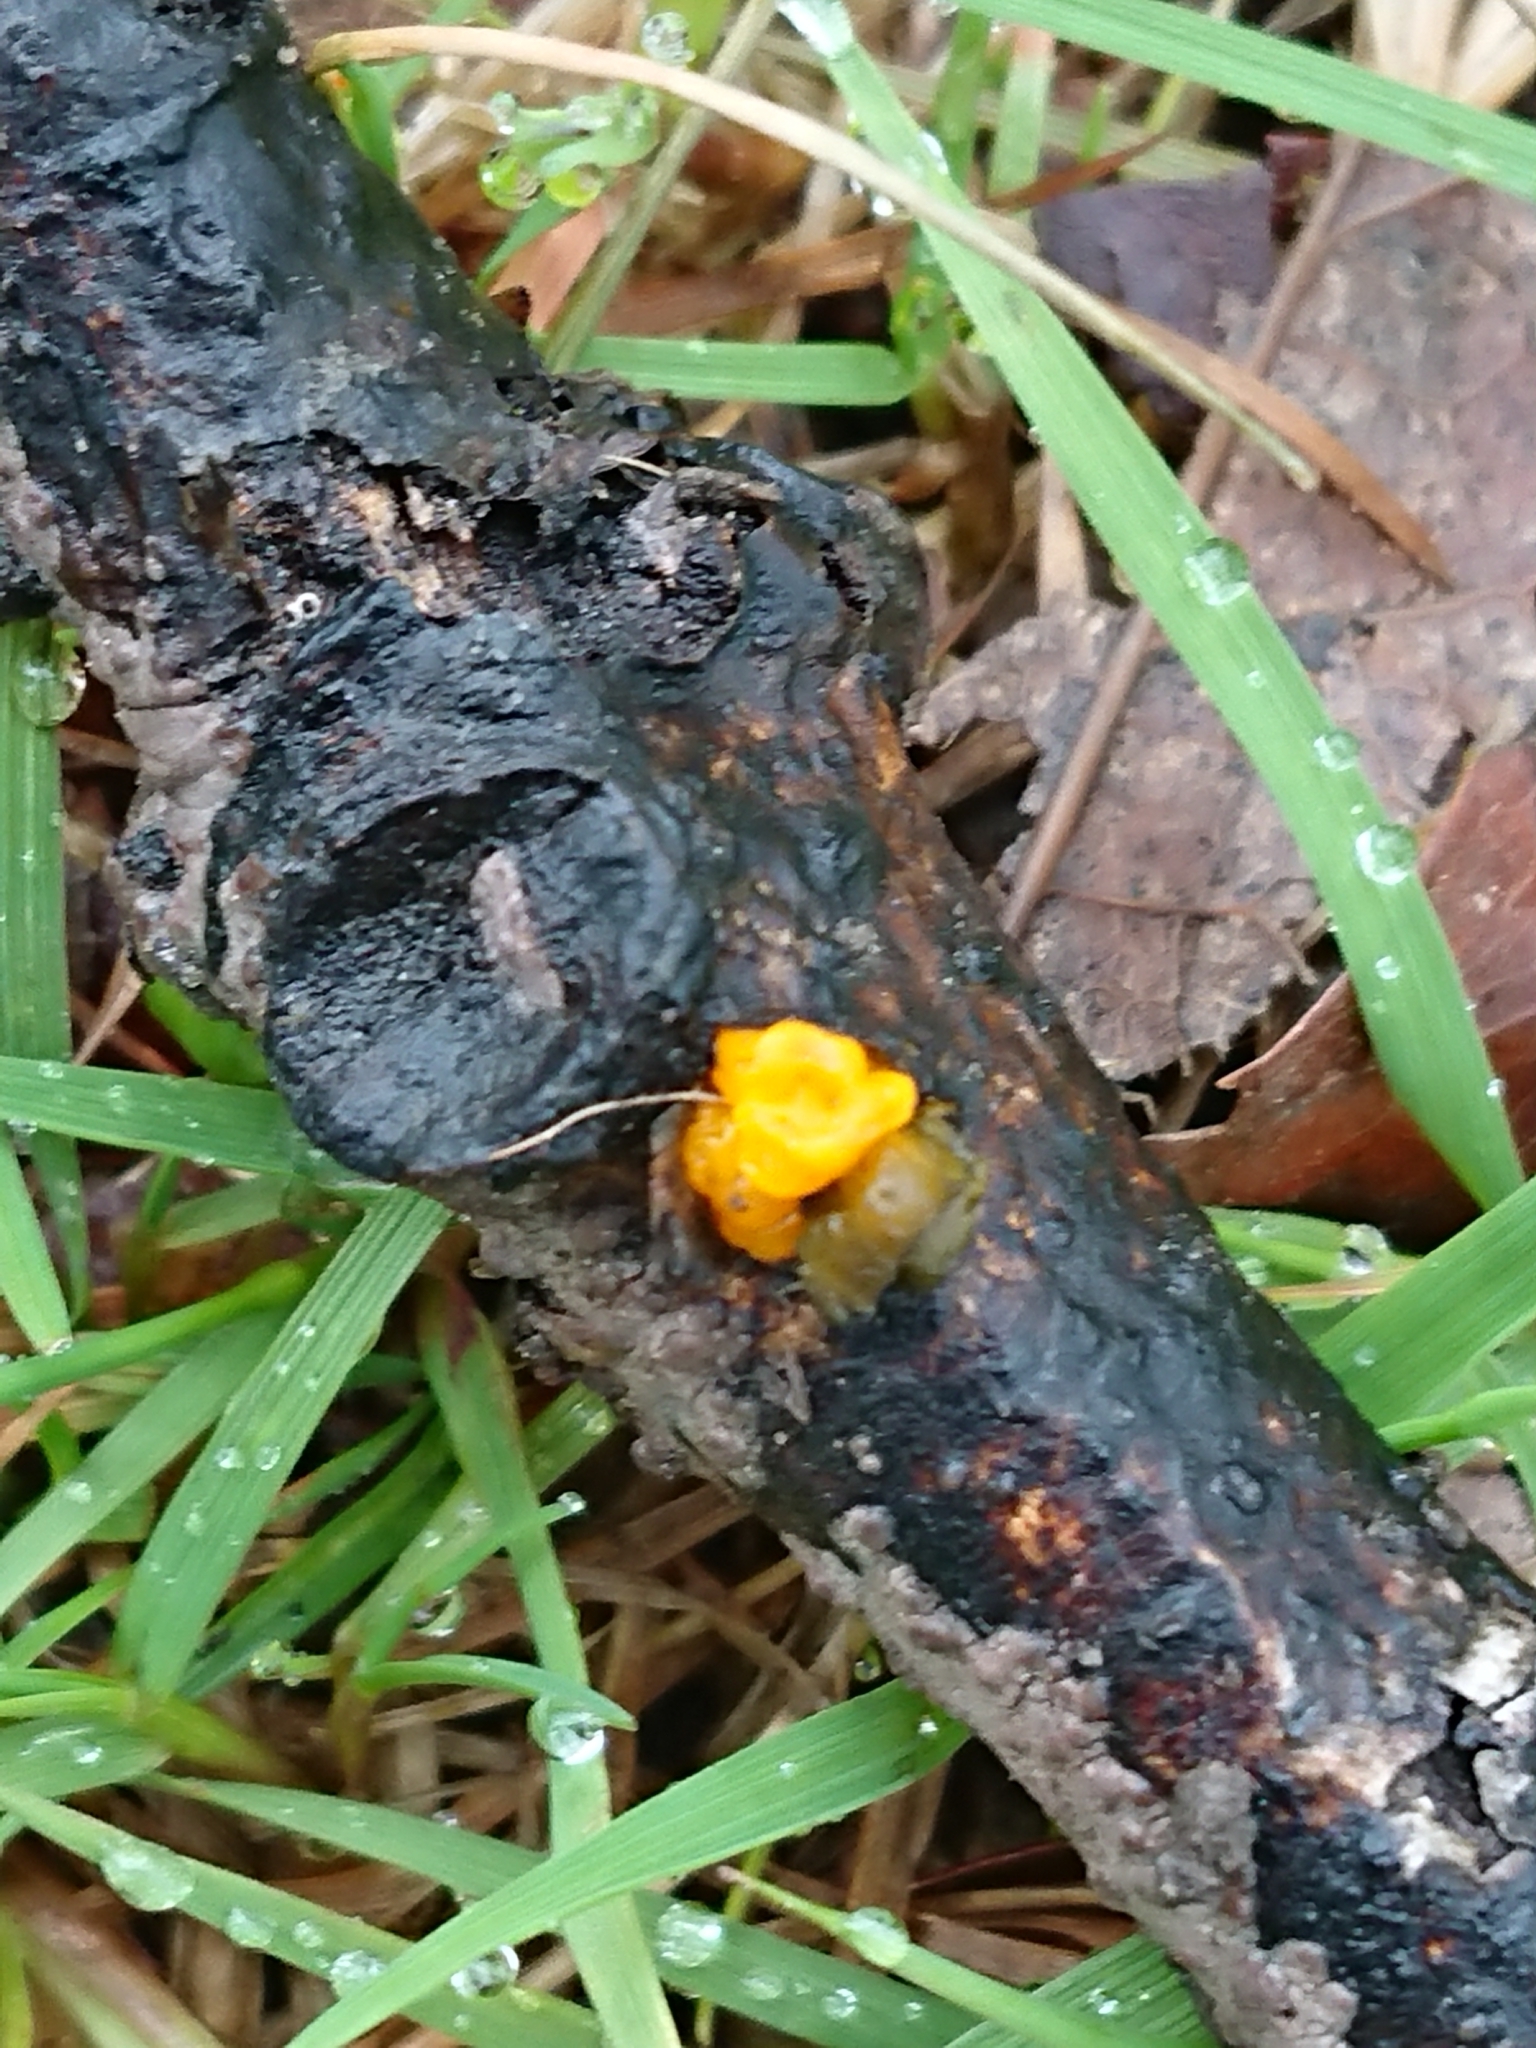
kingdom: Fungi
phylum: Basidiomycota
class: Tremellomycetes
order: Tremellales
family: Tremellaceae
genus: Tremella
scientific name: Tremella mesenterica
